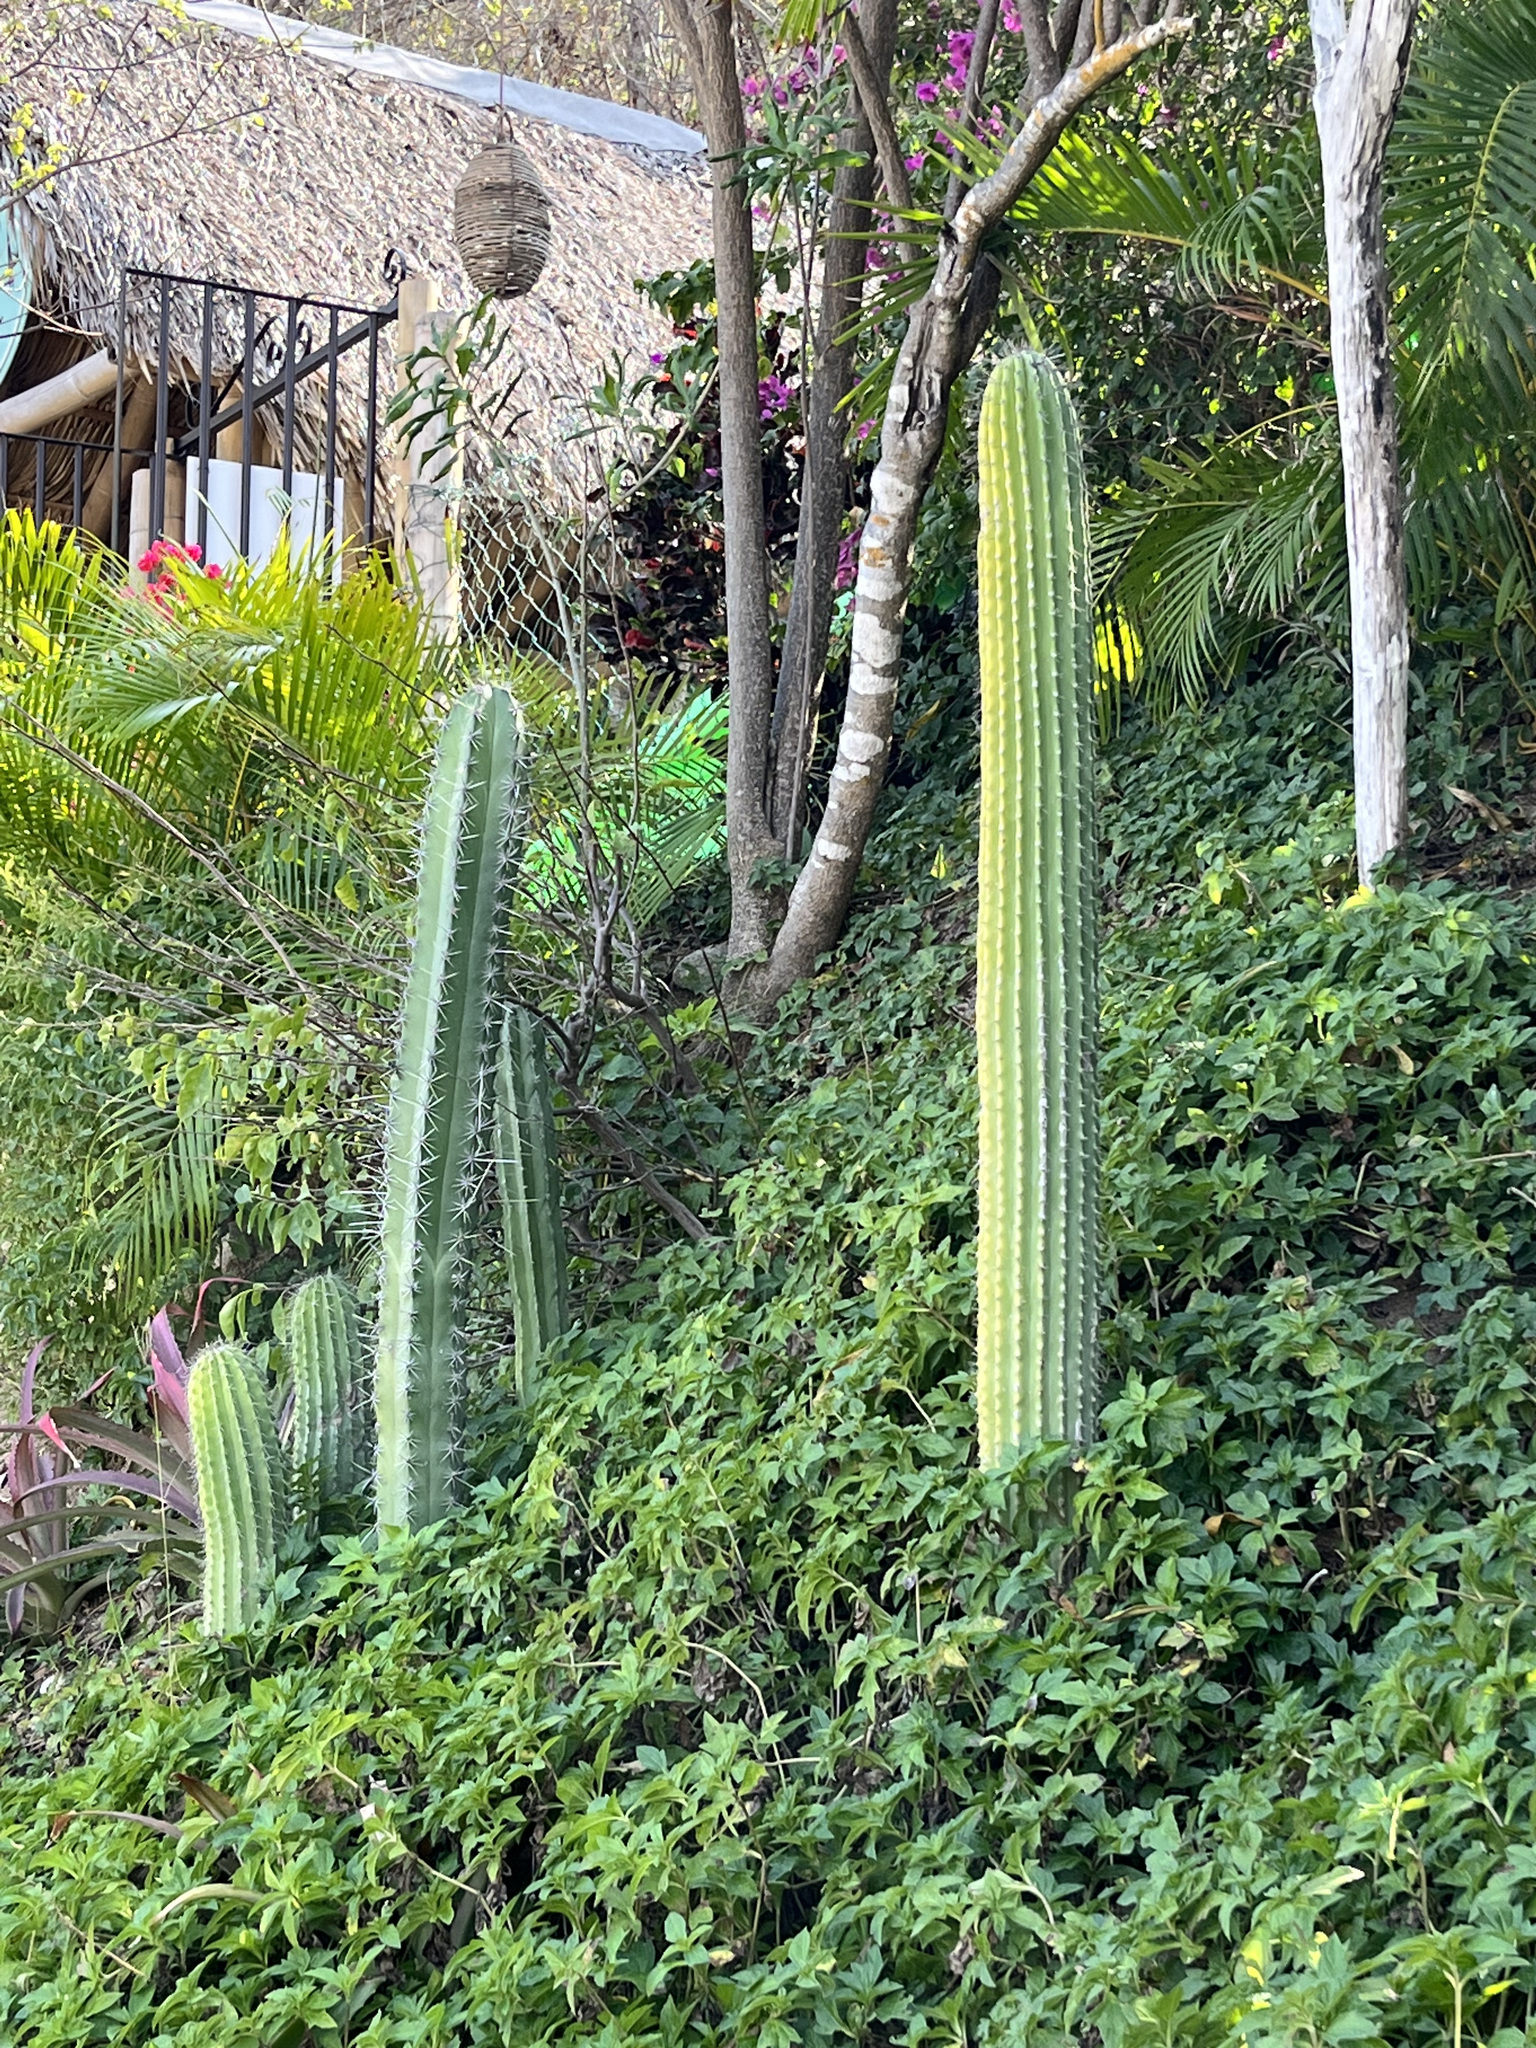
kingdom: Plantae
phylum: Tracheophyta
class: Magnoliopsida
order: Caryophyllales
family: Cactaceae
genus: Cephalocereus
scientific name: Cephalocereus nudus
